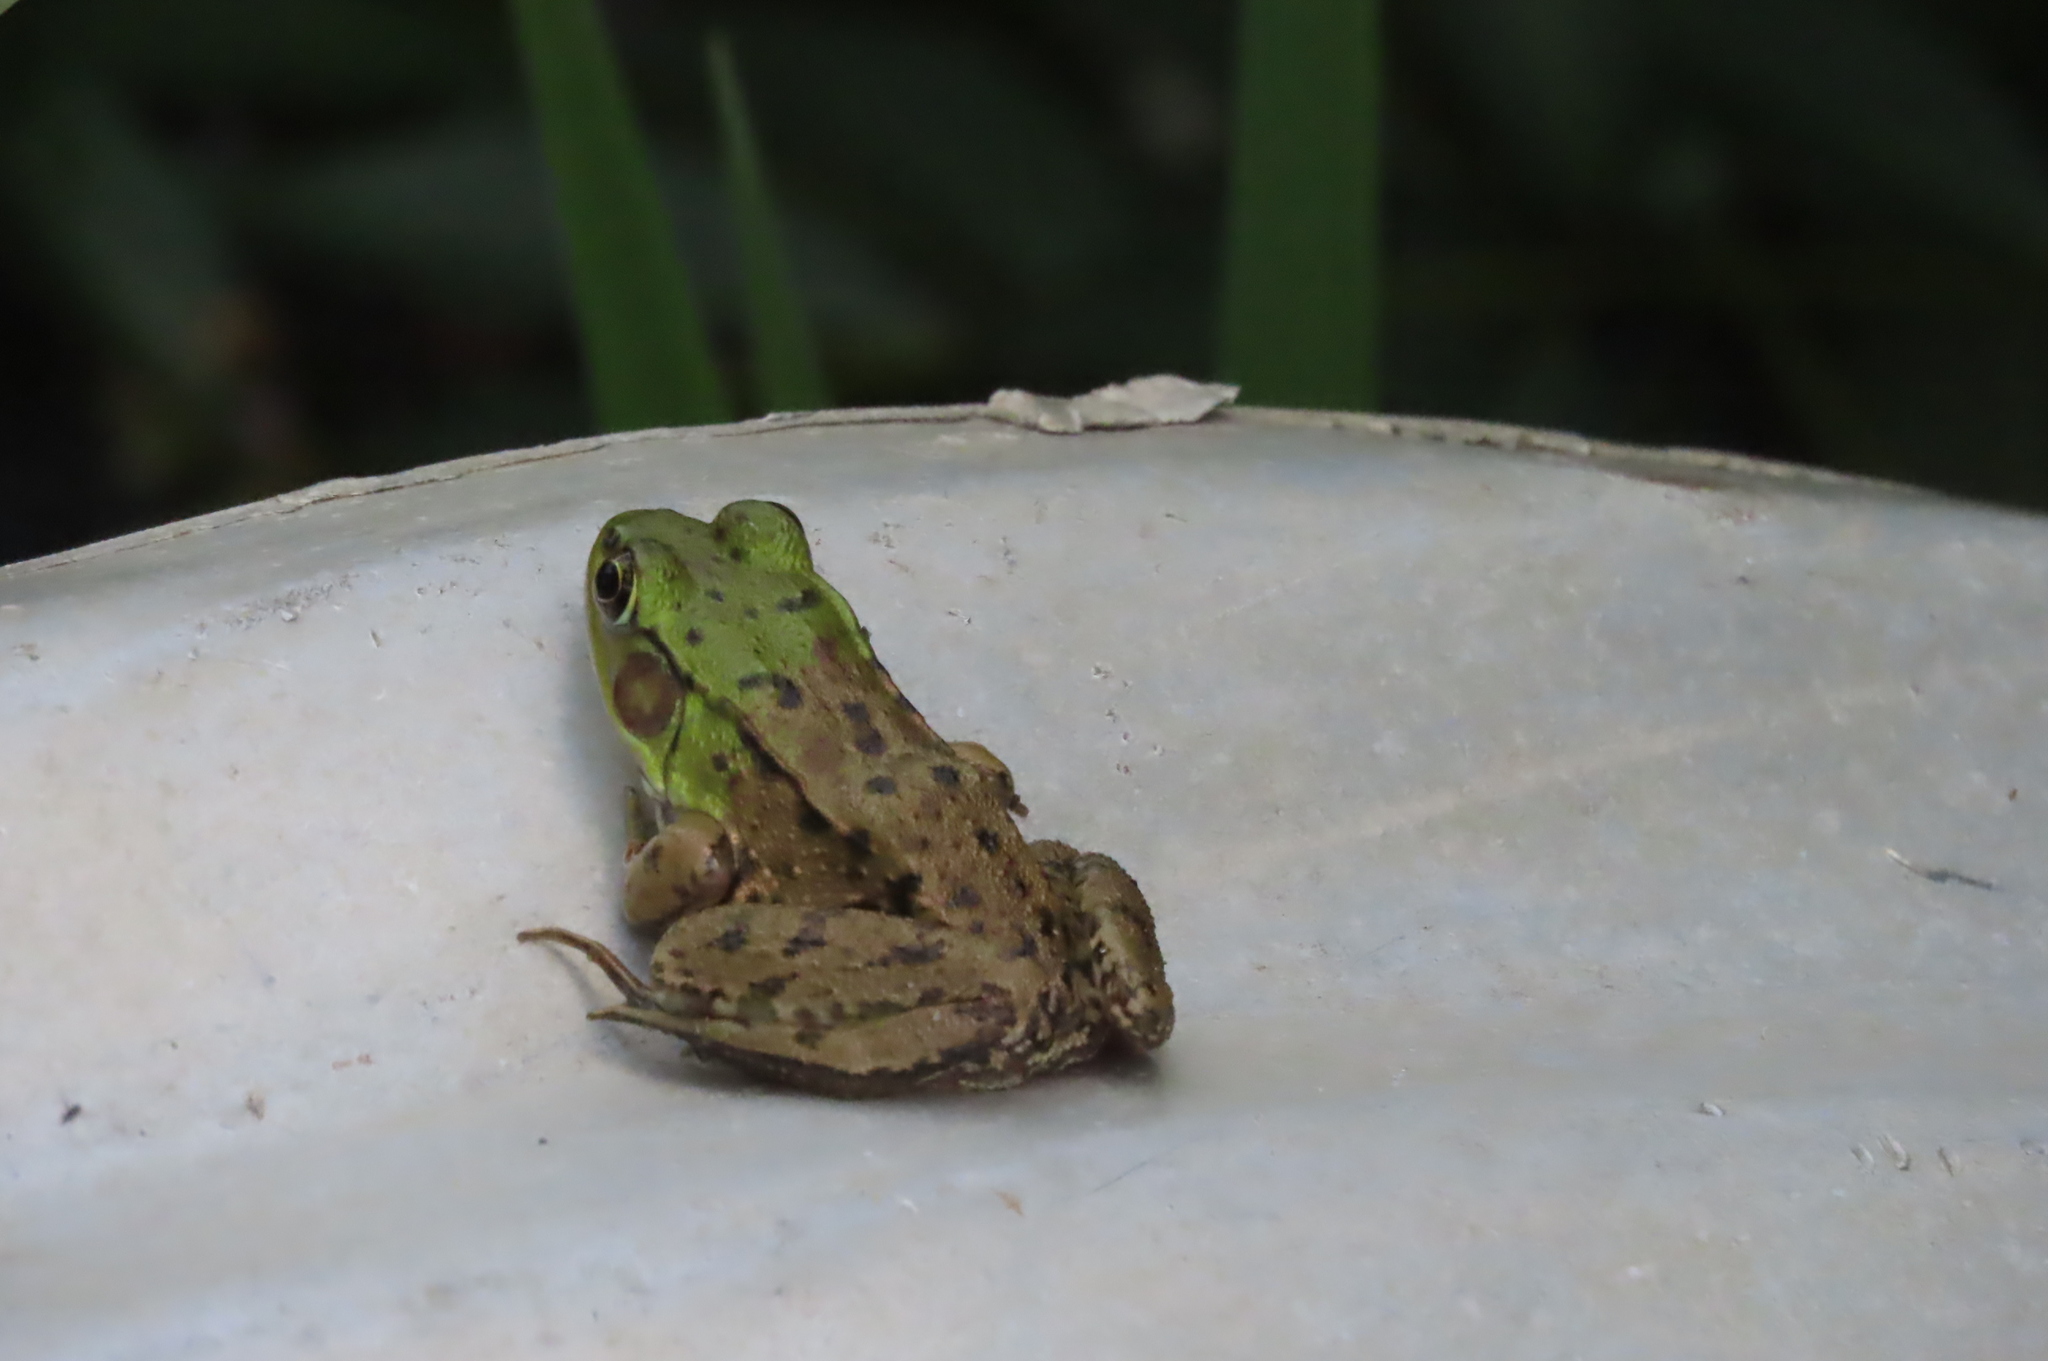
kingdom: Animalia
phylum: Chordata
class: Amphibia
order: Anura
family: Ranidae
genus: Lithobates
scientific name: Lithobates clamitans
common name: Green frog
